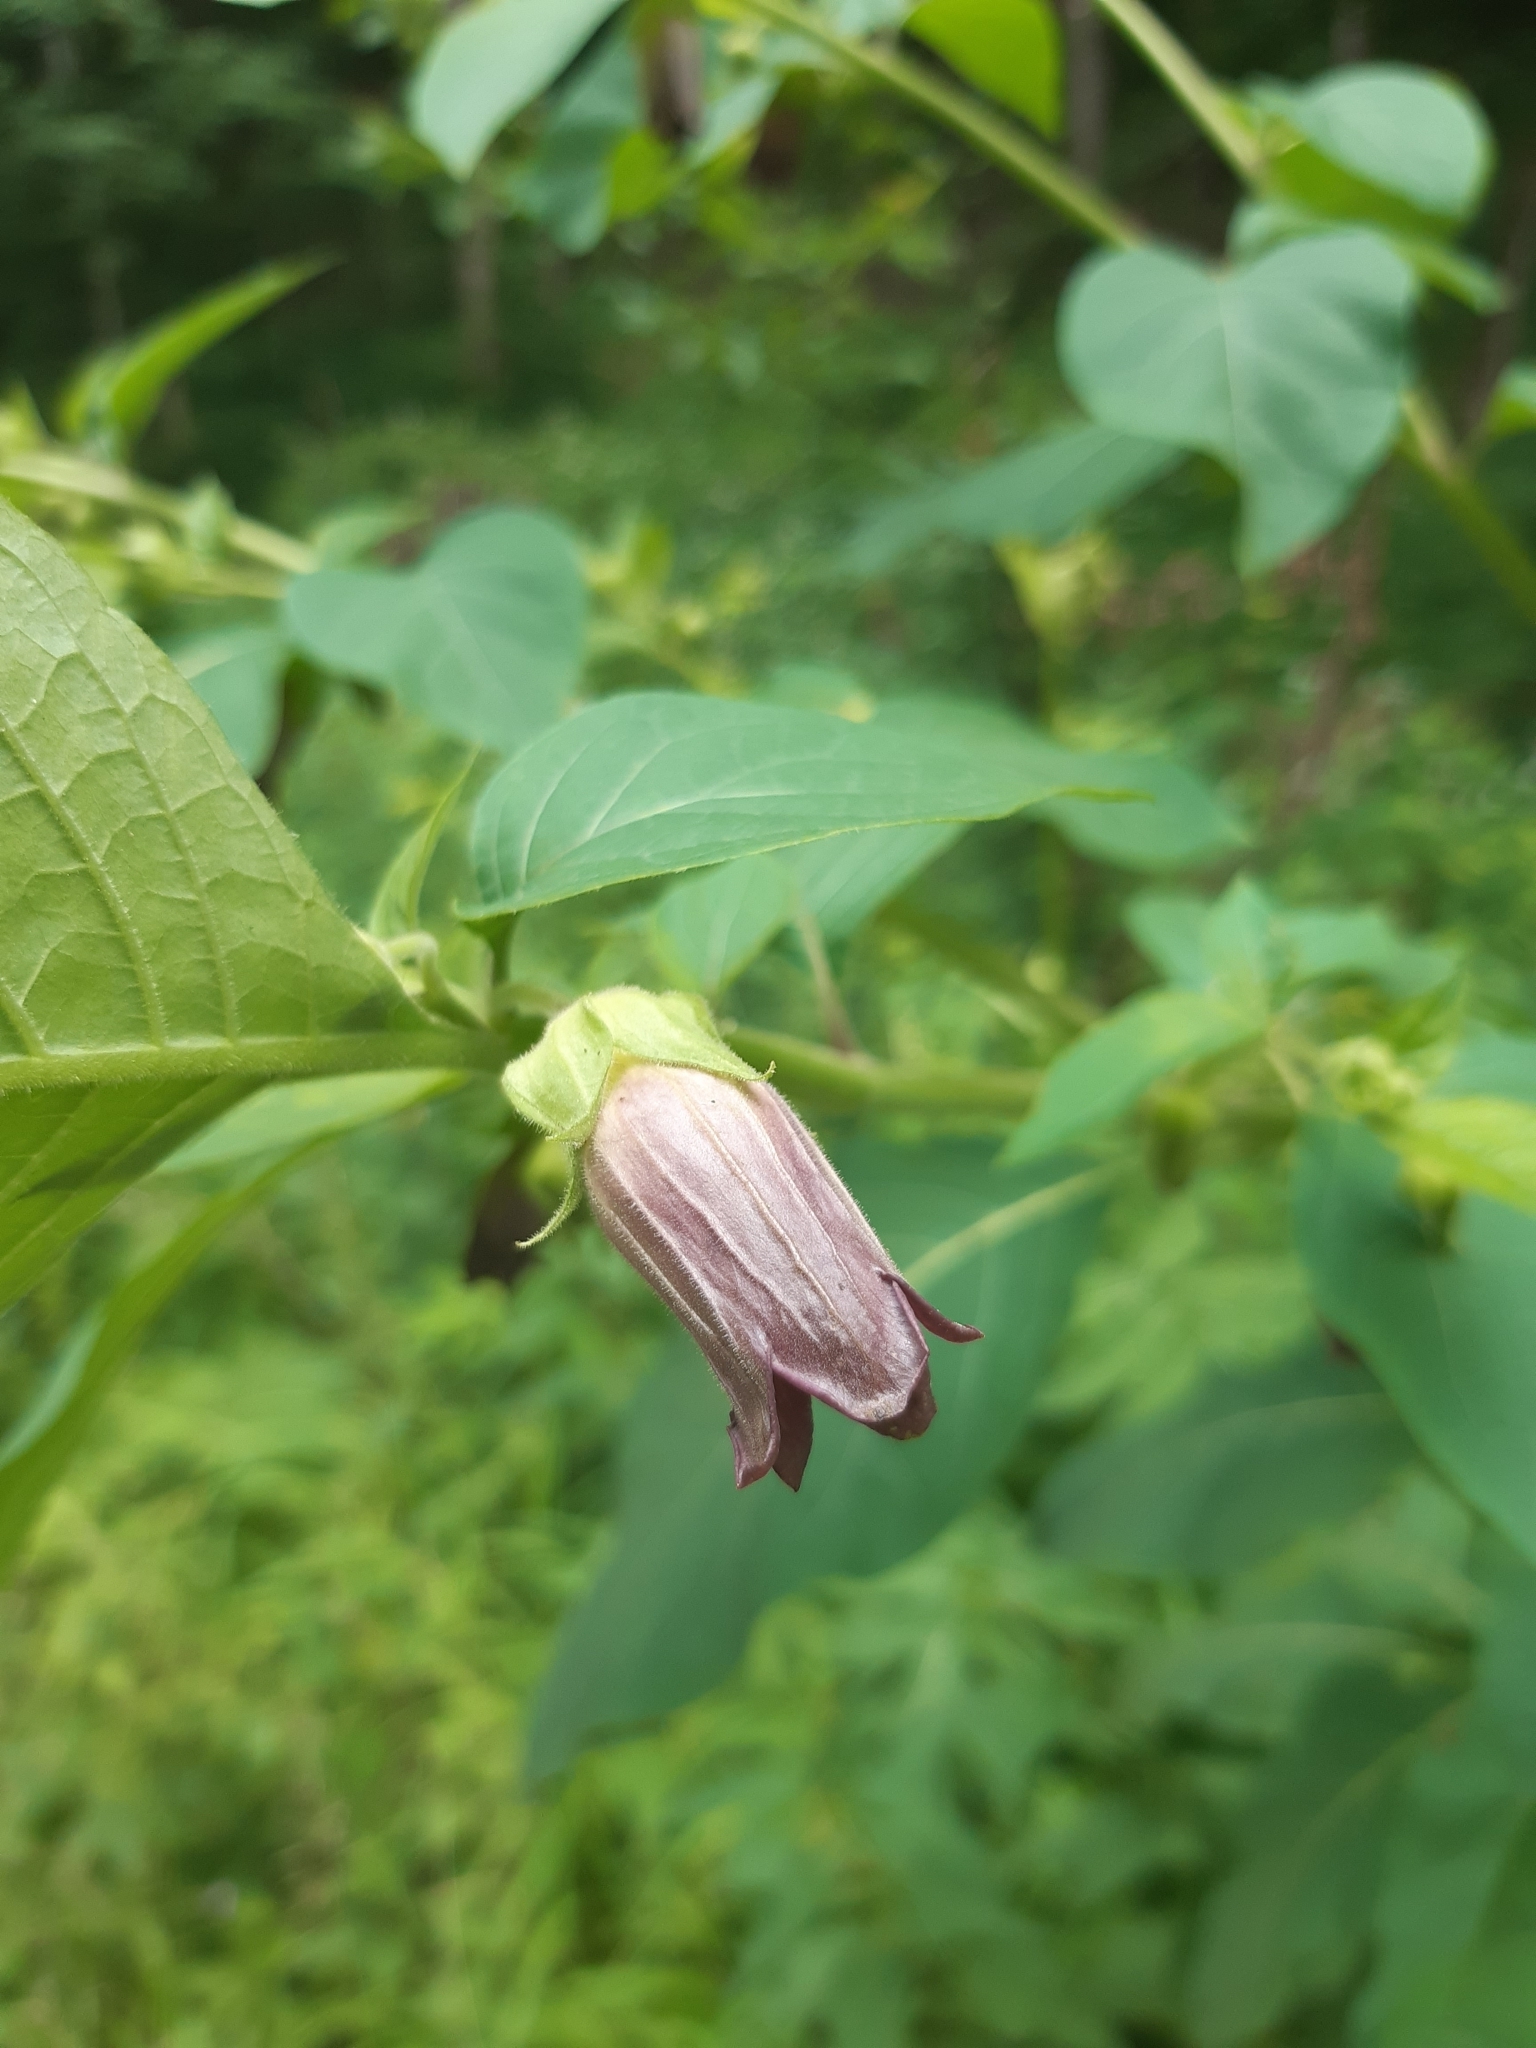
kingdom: Plantae
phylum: Tracheophyta
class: Magnoliopsida
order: Solanales
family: Solanaceae
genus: Atropa
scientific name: Atropa belladonna
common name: Deadly nightshade
